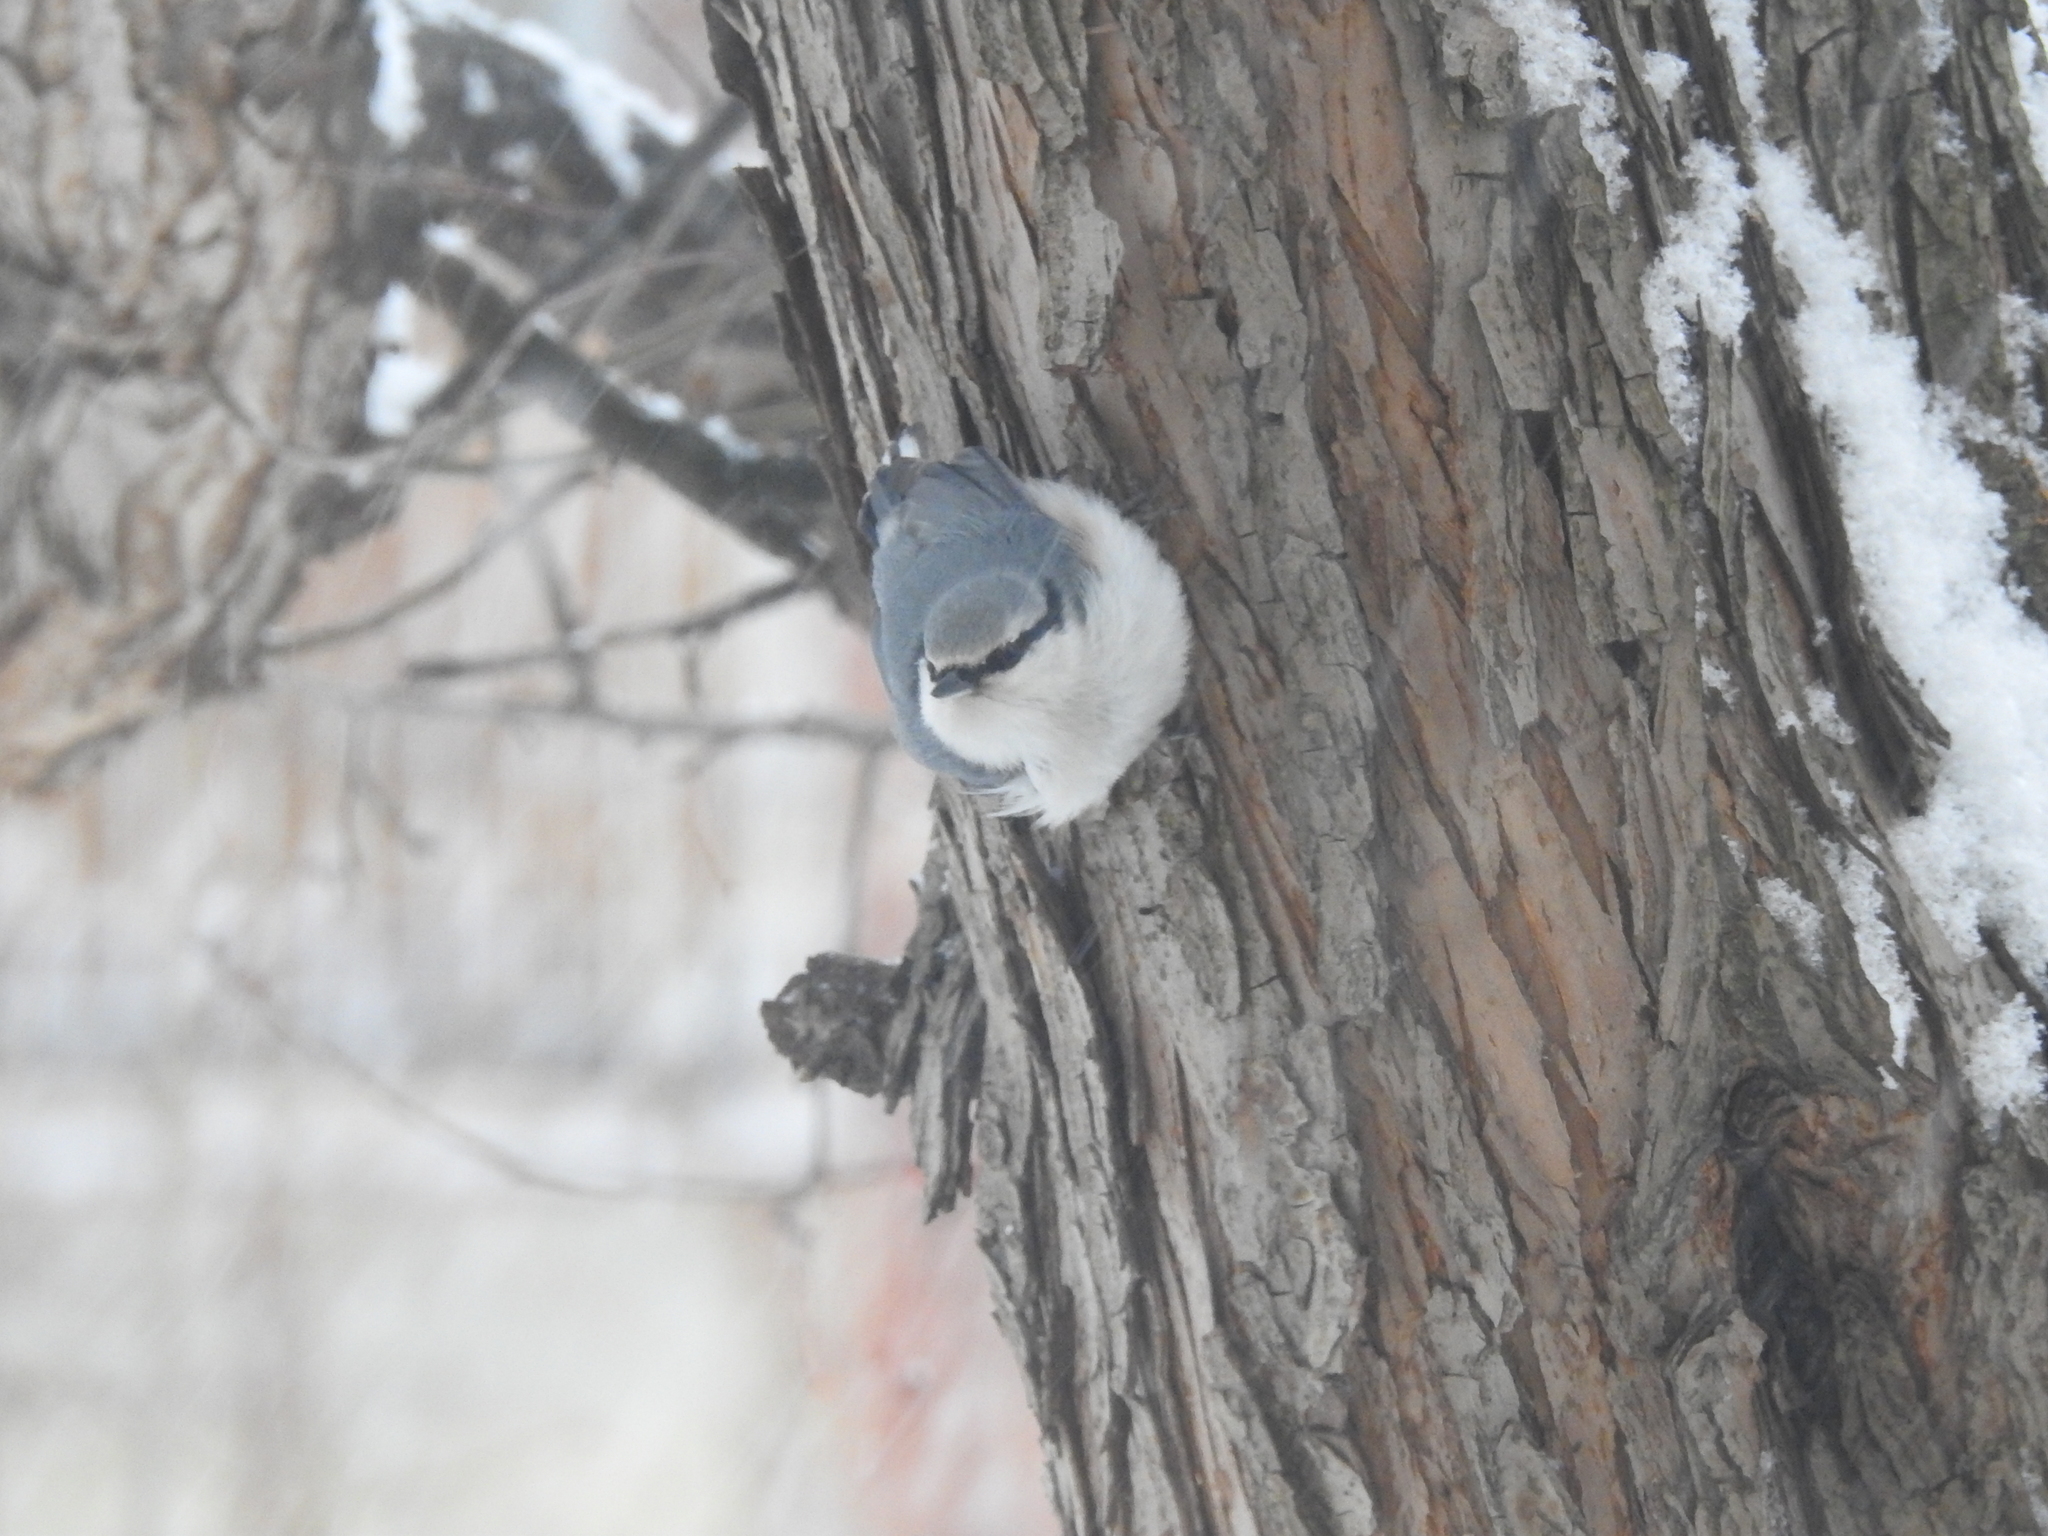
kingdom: Animalia
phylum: Chordata
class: Aves
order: Passeriformes
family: Sittidae
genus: Sitta
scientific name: Sitta europaea
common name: Eurasian nuthatch
